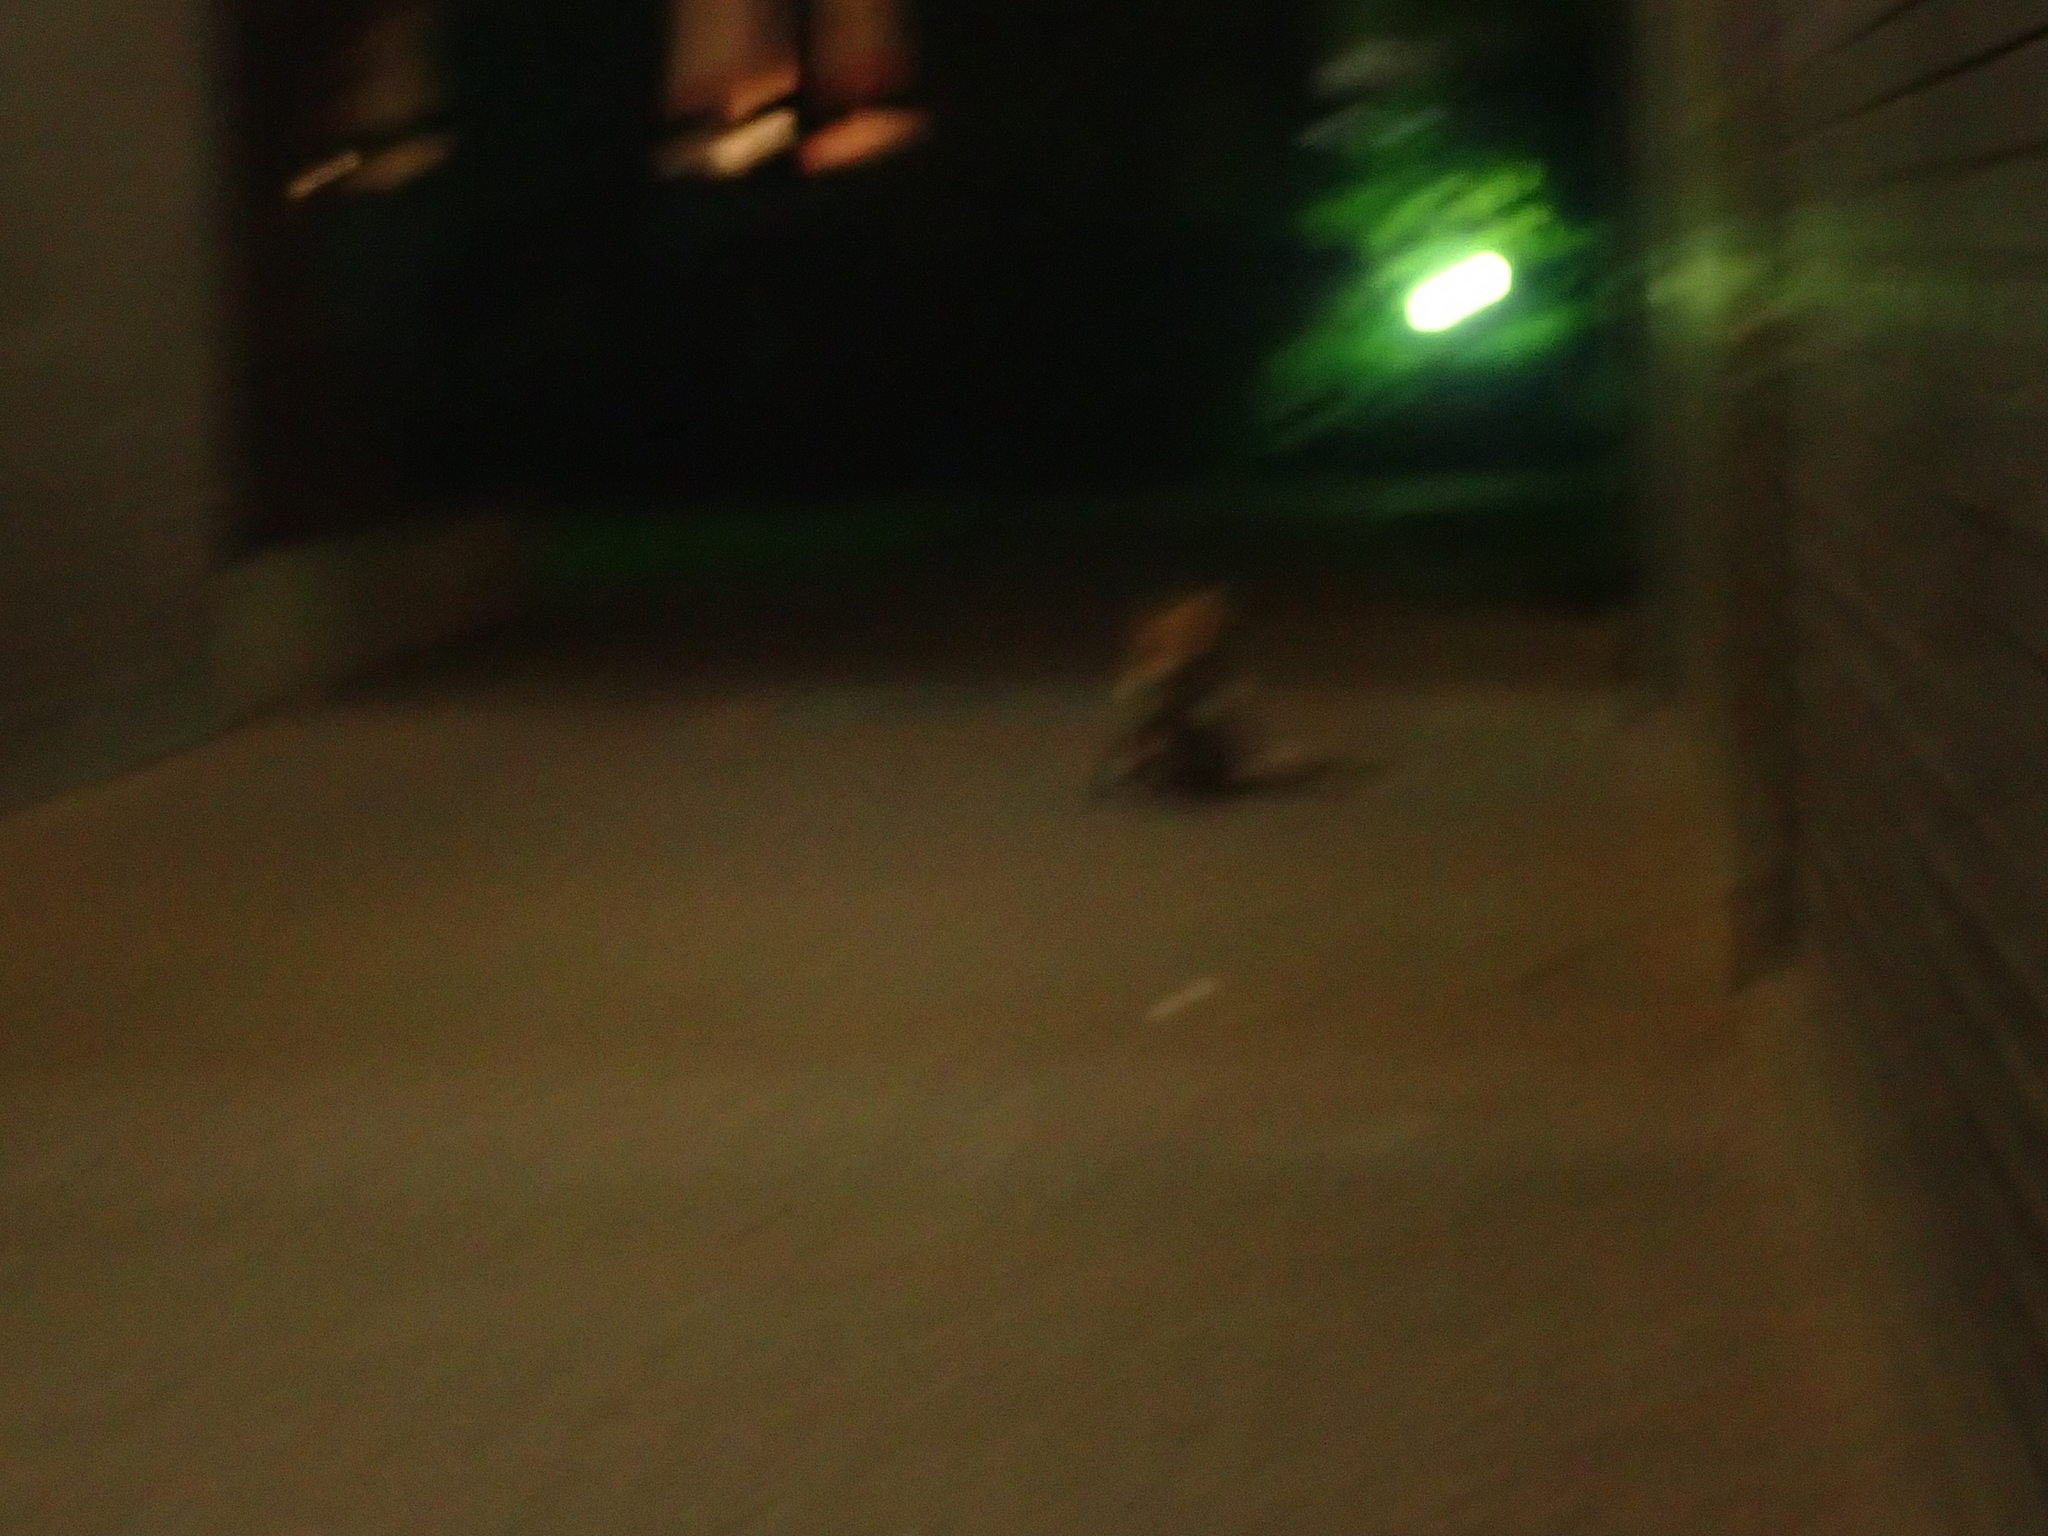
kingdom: Animalia
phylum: Chordata
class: Mammalia
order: Carnivora
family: Canidae
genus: Vulpes
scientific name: Vulpes vulpes
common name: Red fox
